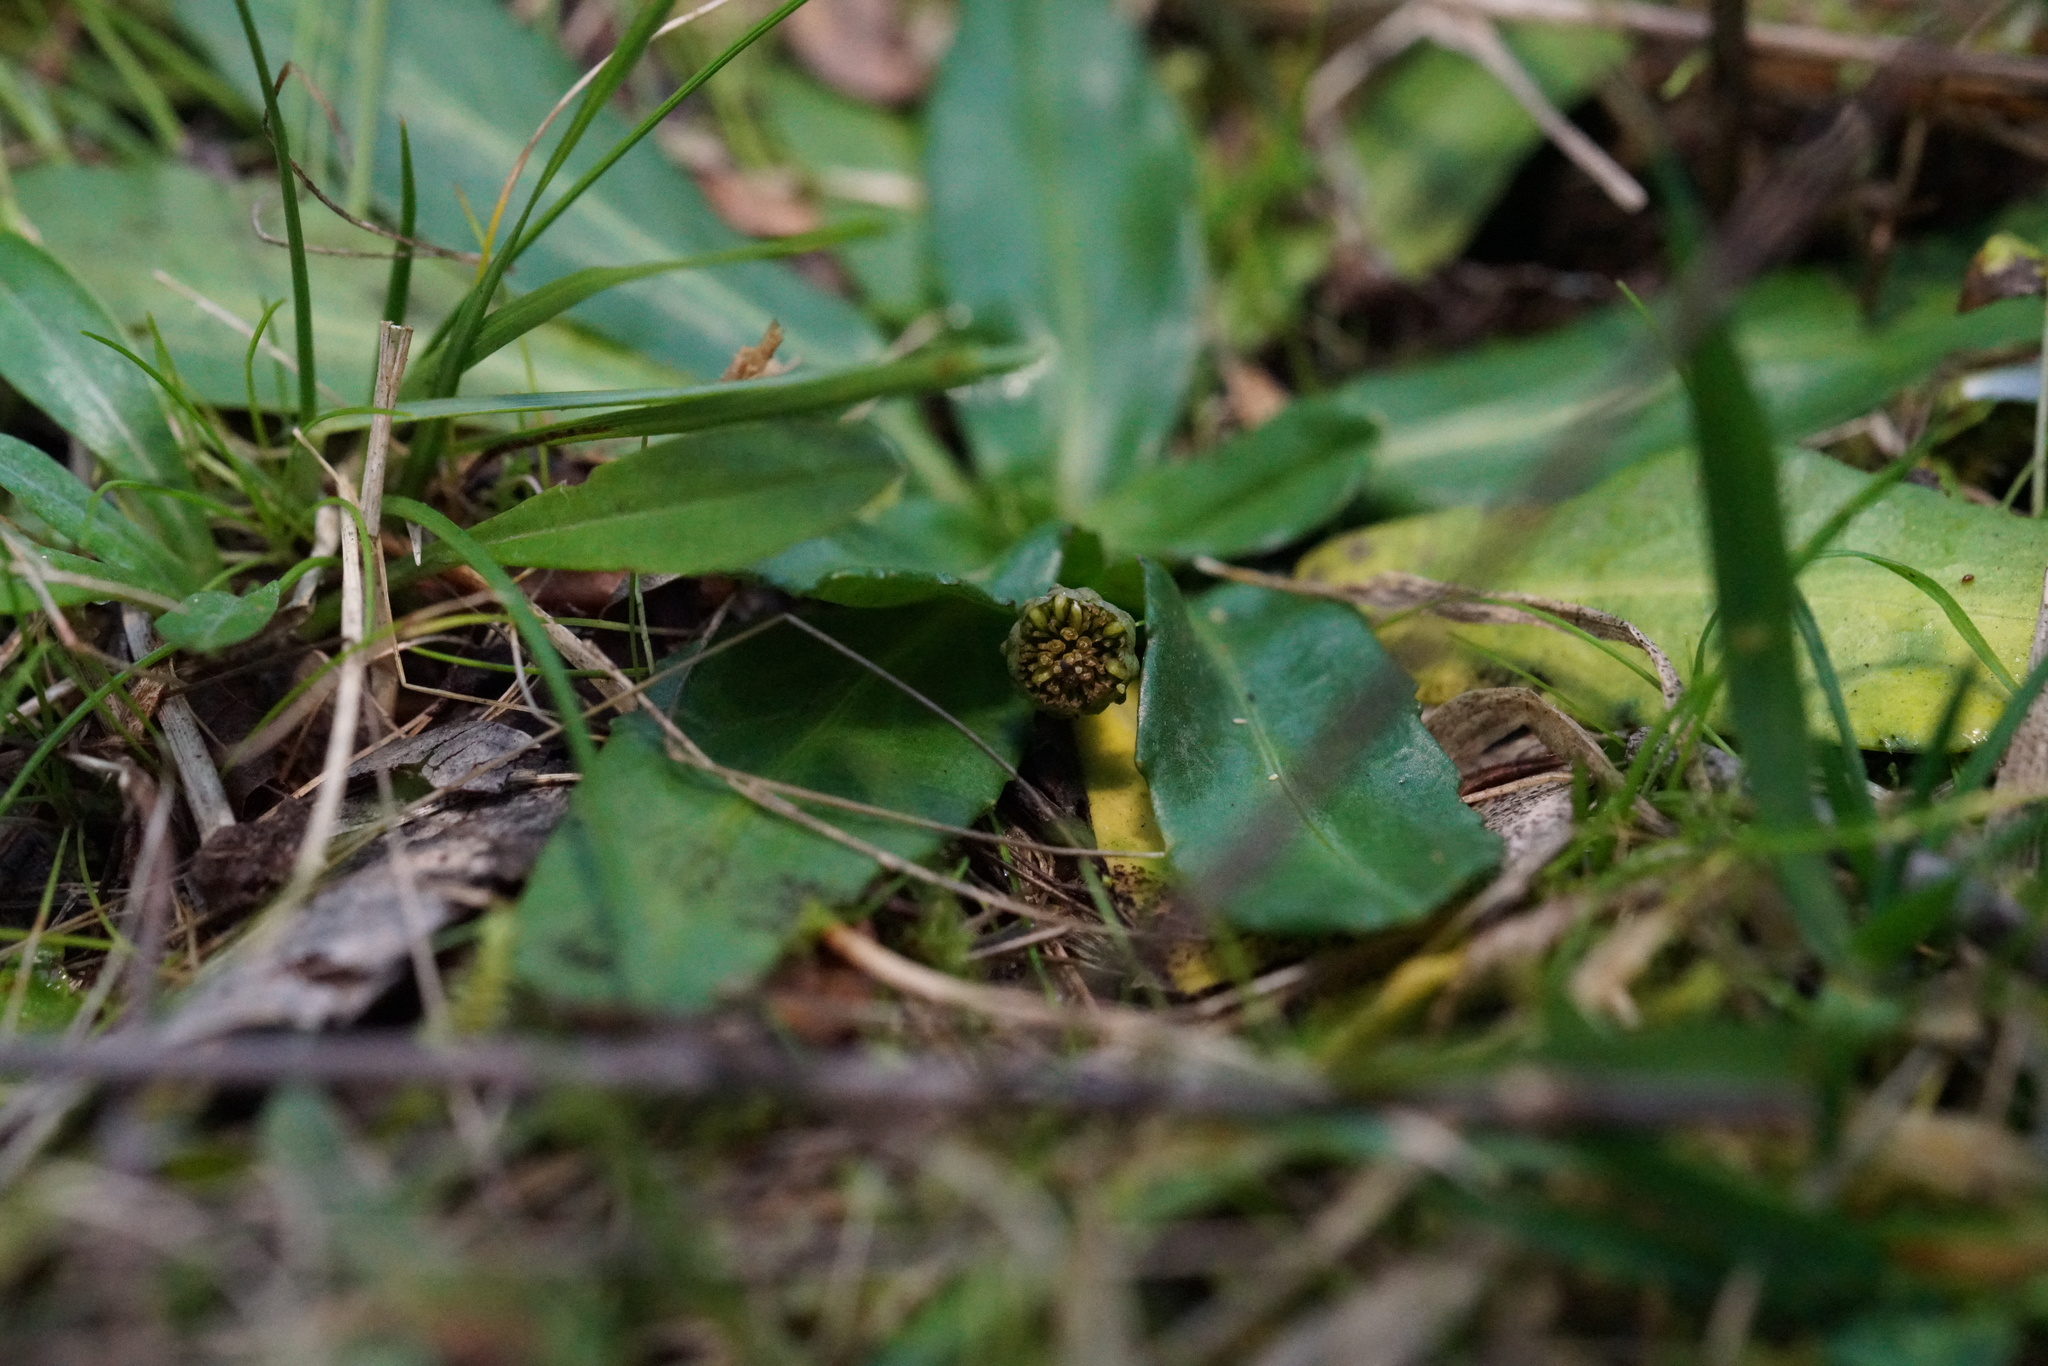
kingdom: Plantae
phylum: Tracheophyta
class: Magnoliopsida
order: Asterales
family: Asteraceae
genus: Solenogyne
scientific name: Solenogyne dominii
